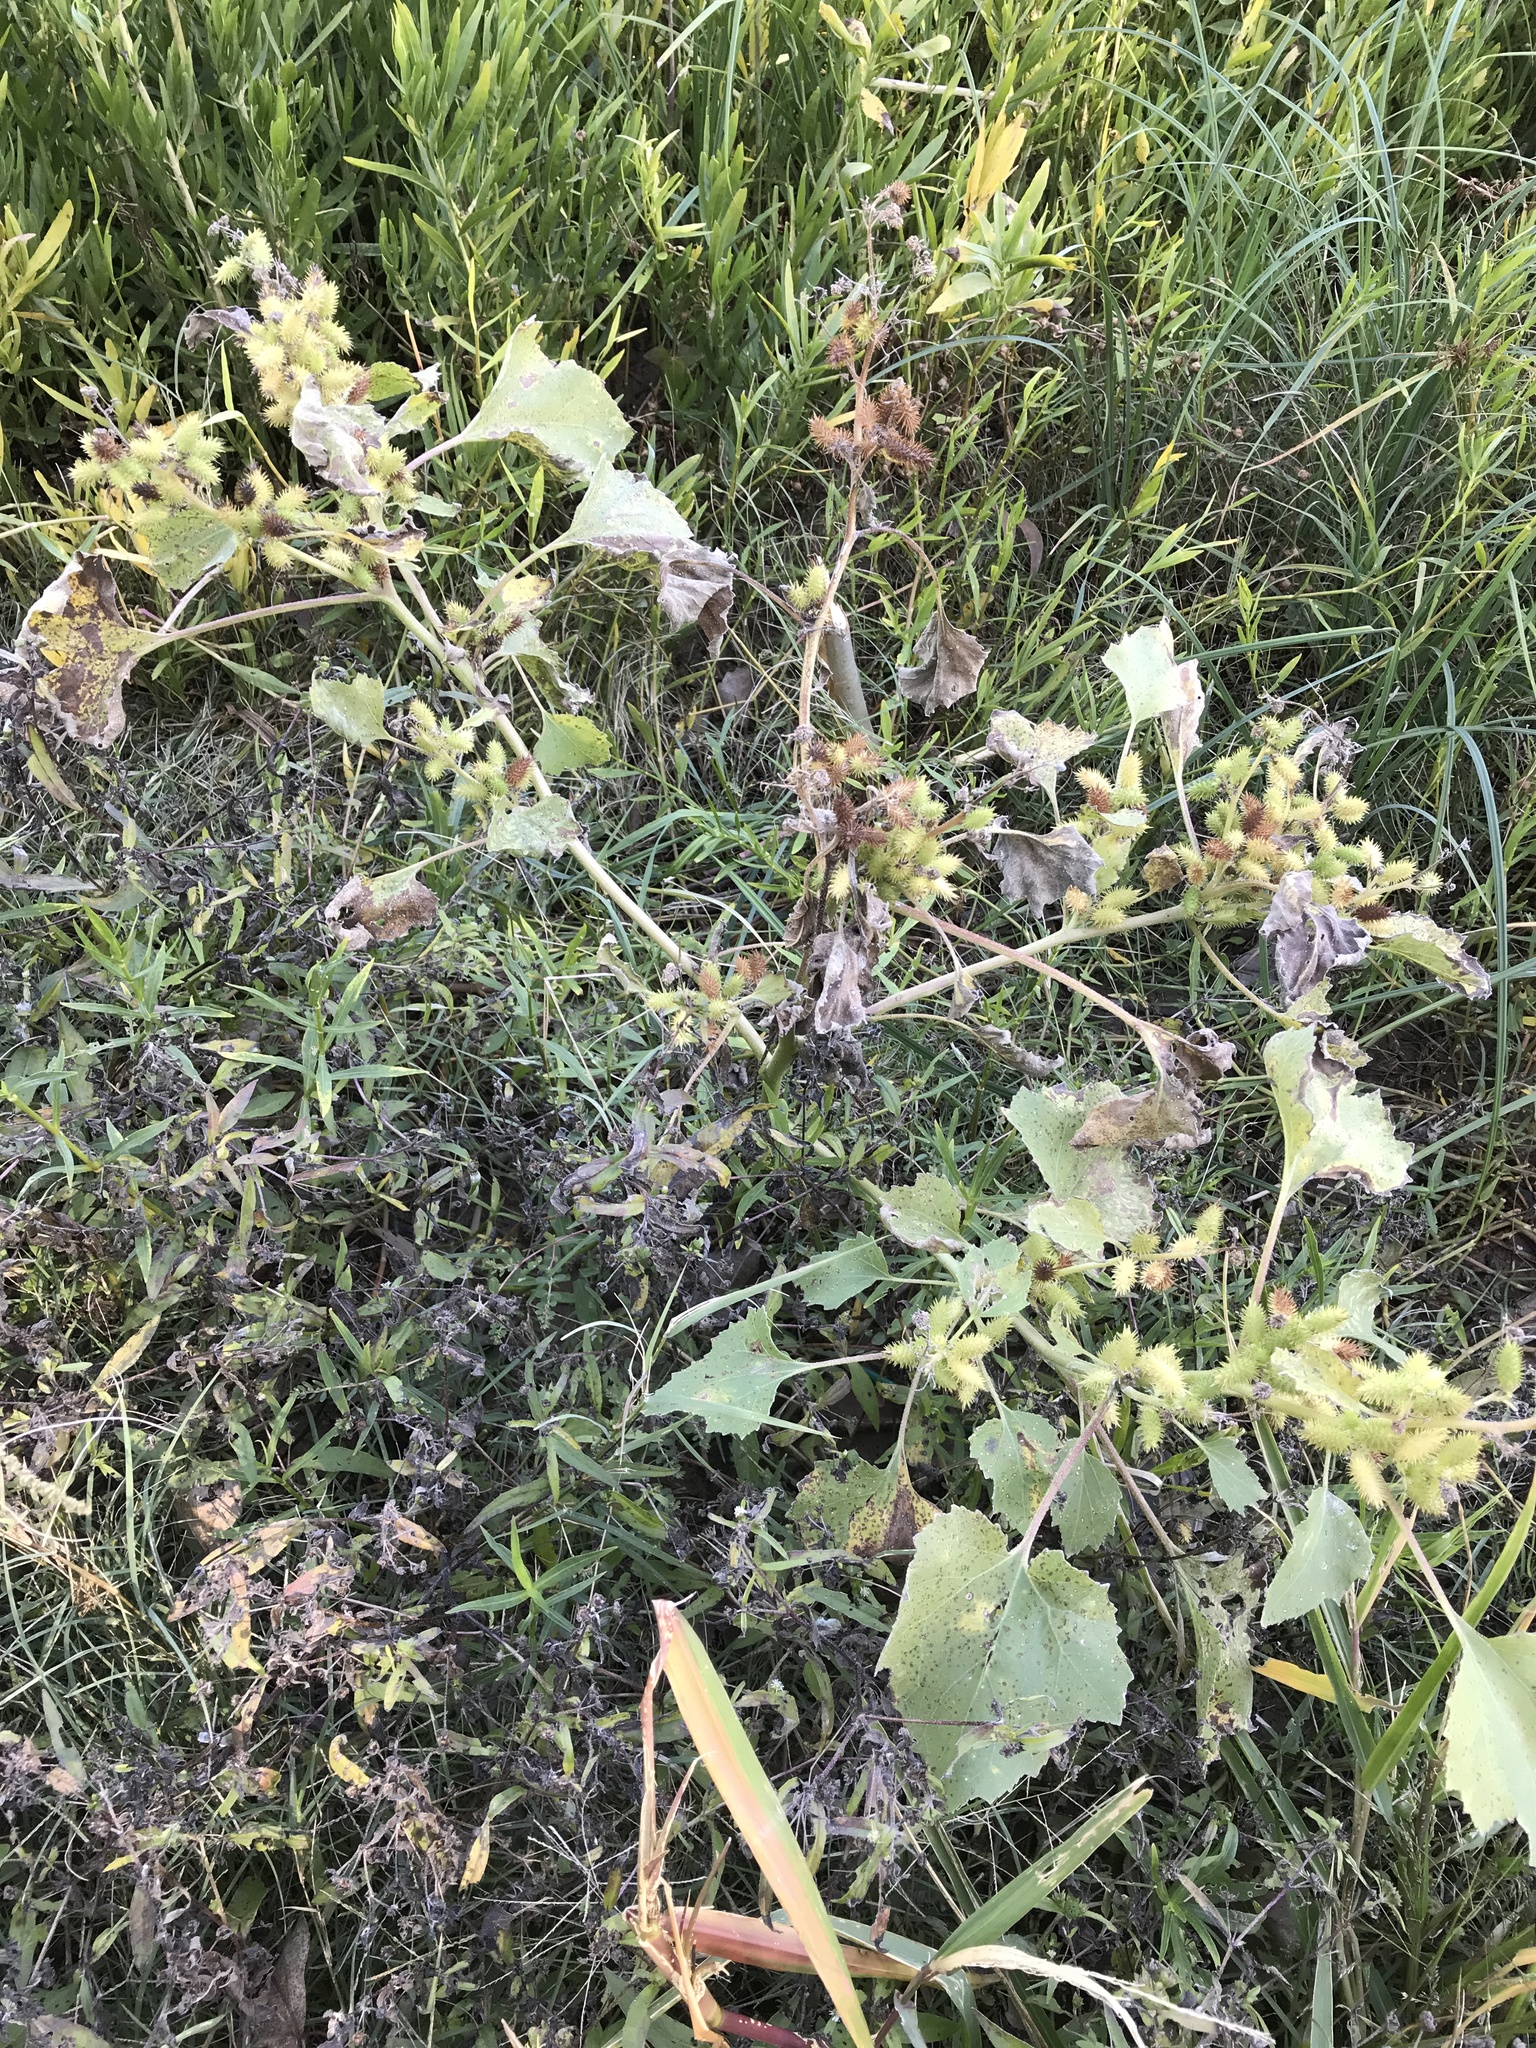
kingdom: Plantae
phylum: Tracheophyta
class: Magnoliopsida
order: Asterales
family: Asteraceae
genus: Xanthium
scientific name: Xanthium strumarium
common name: Rough cocklebur
